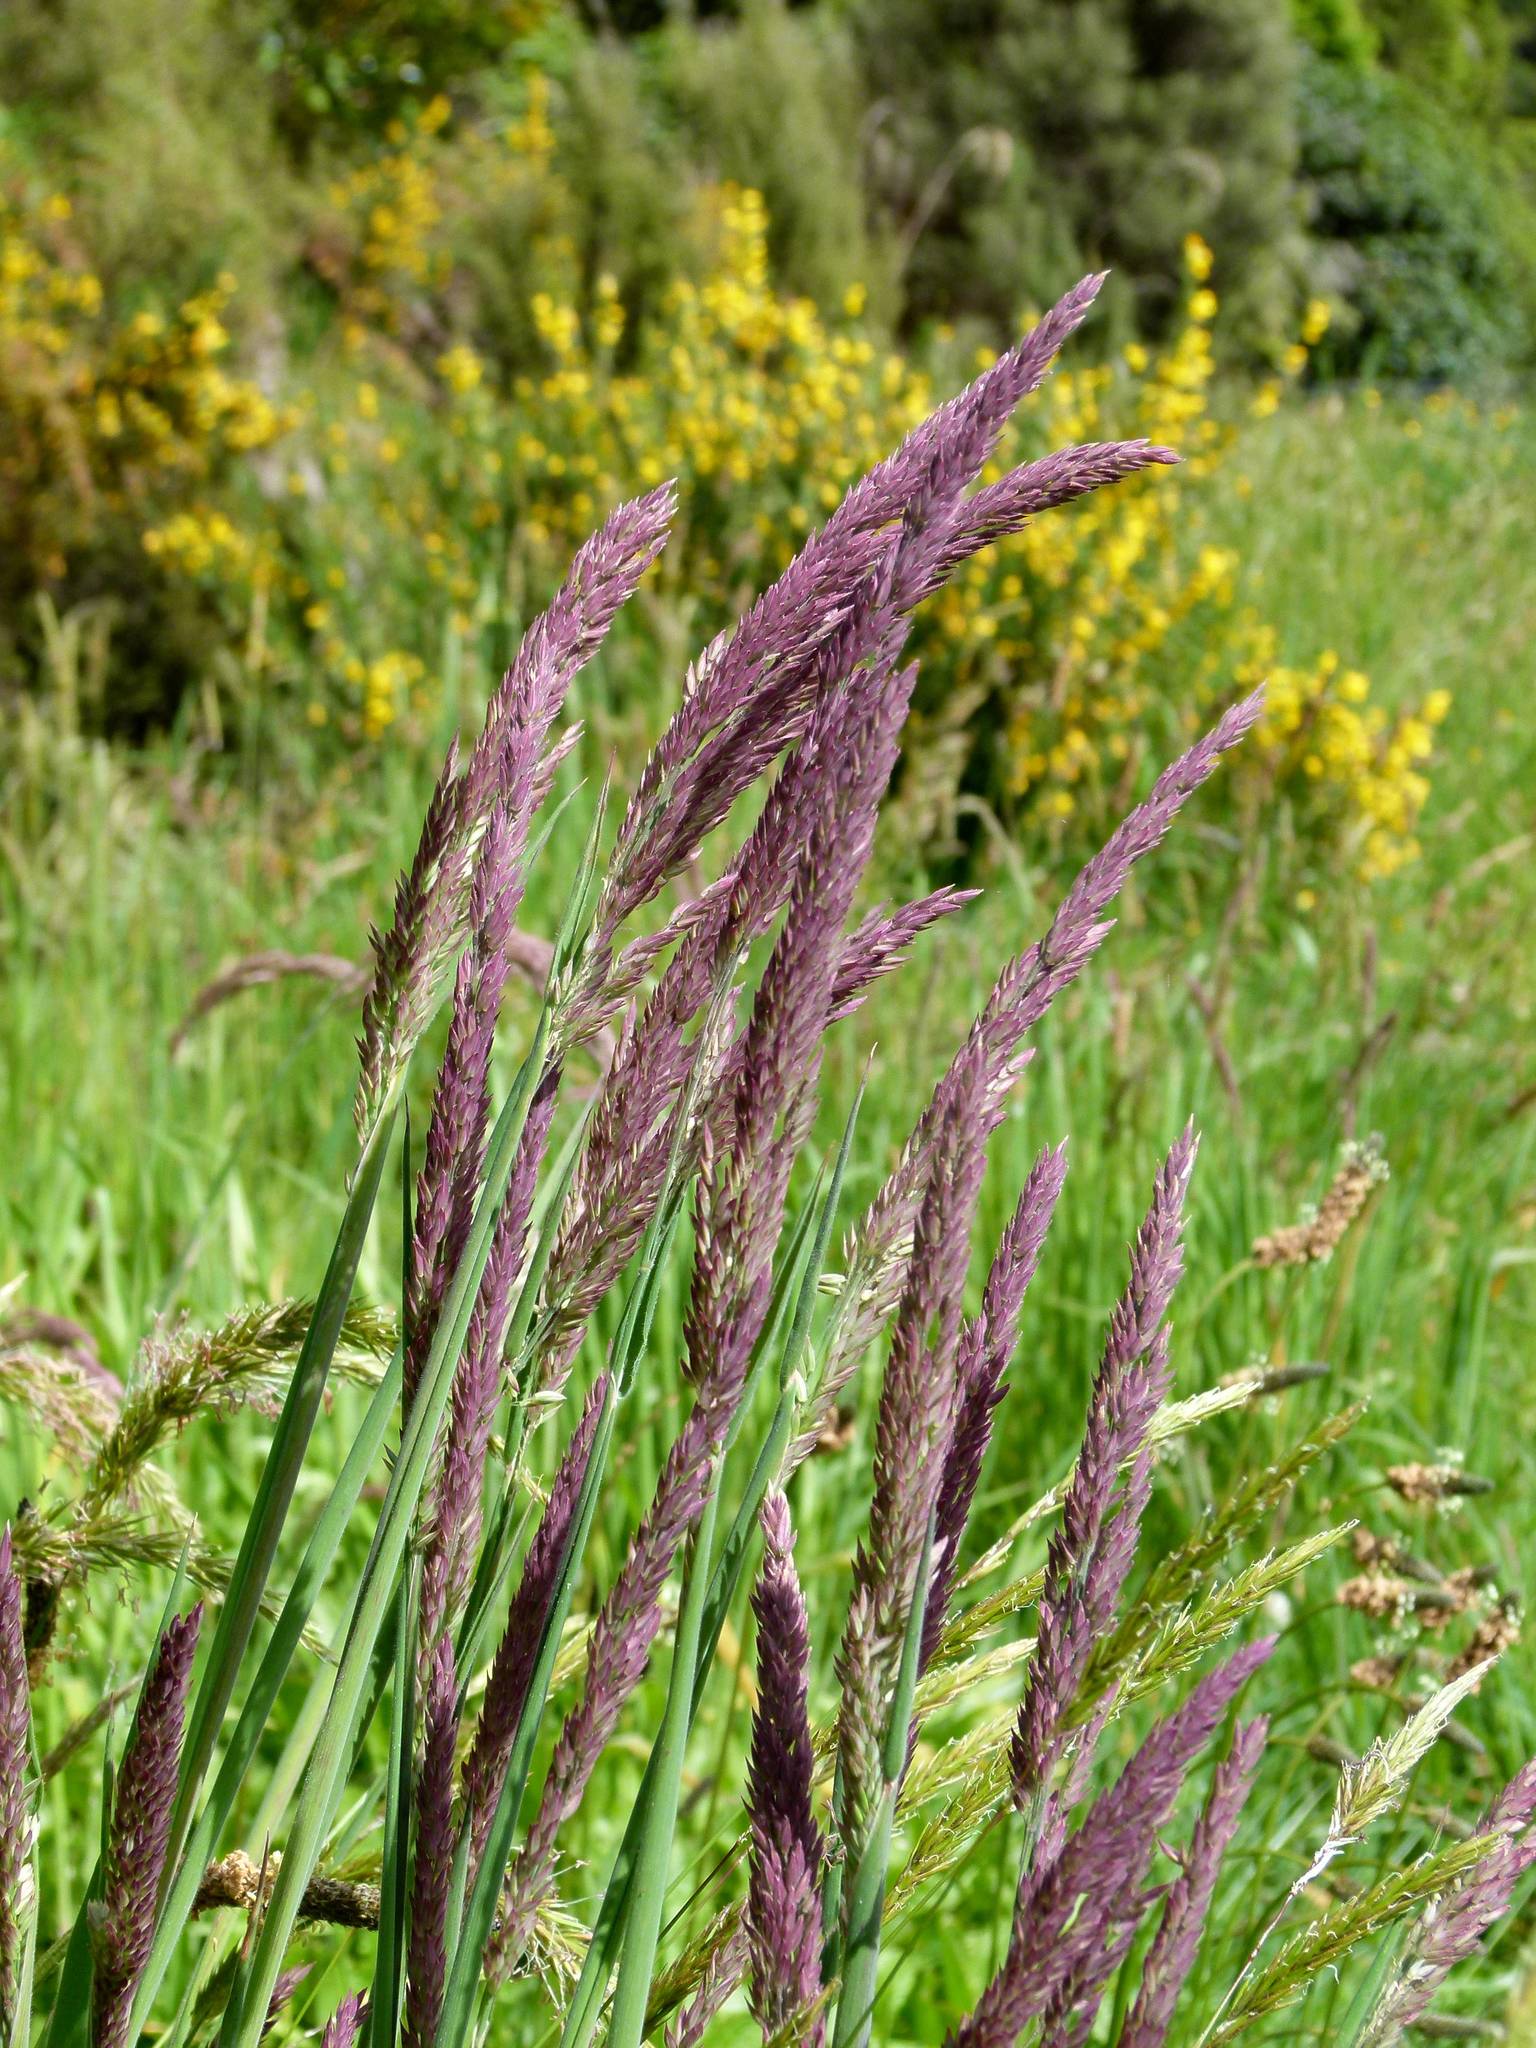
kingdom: Plantae
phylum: Tracheophyta
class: Liliopsida
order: Poales
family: Poaceae
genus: Holcus
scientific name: Holcus lanatus
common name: Yorkshire-fog
